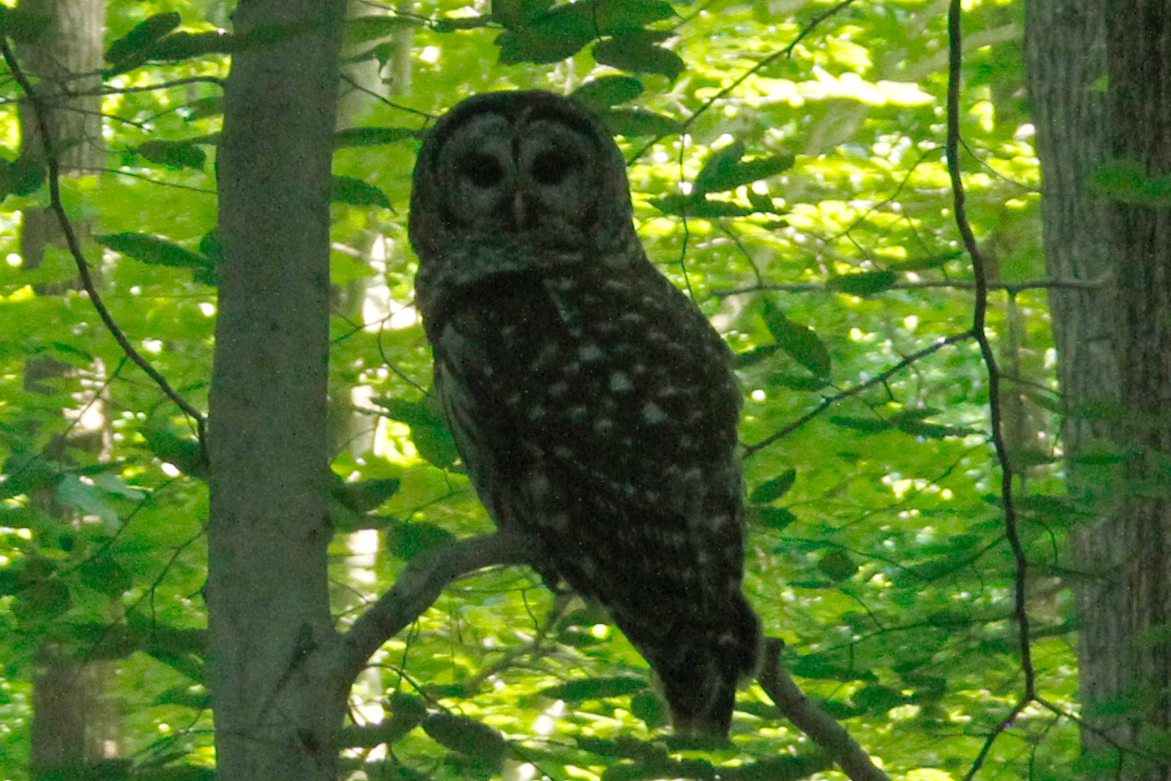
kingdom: Animalia
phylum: Chordata
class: Aves
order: Strigiformes
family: Strigidae
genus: Strix
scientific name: Strix varia
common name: Barred owl
